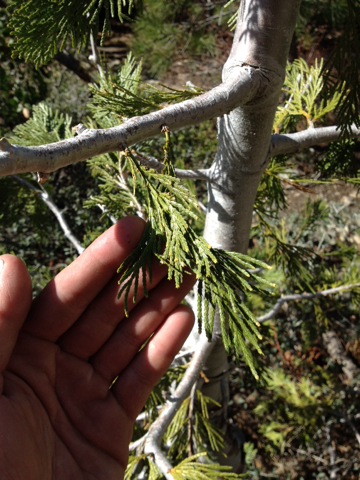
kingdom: Plantae
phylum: Tracheophyta
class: Pinopsida
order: Pinales
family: Cupressaceae
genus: Calocedrus
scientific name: Calocedrus decurrens
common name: Californian incense-cedar
